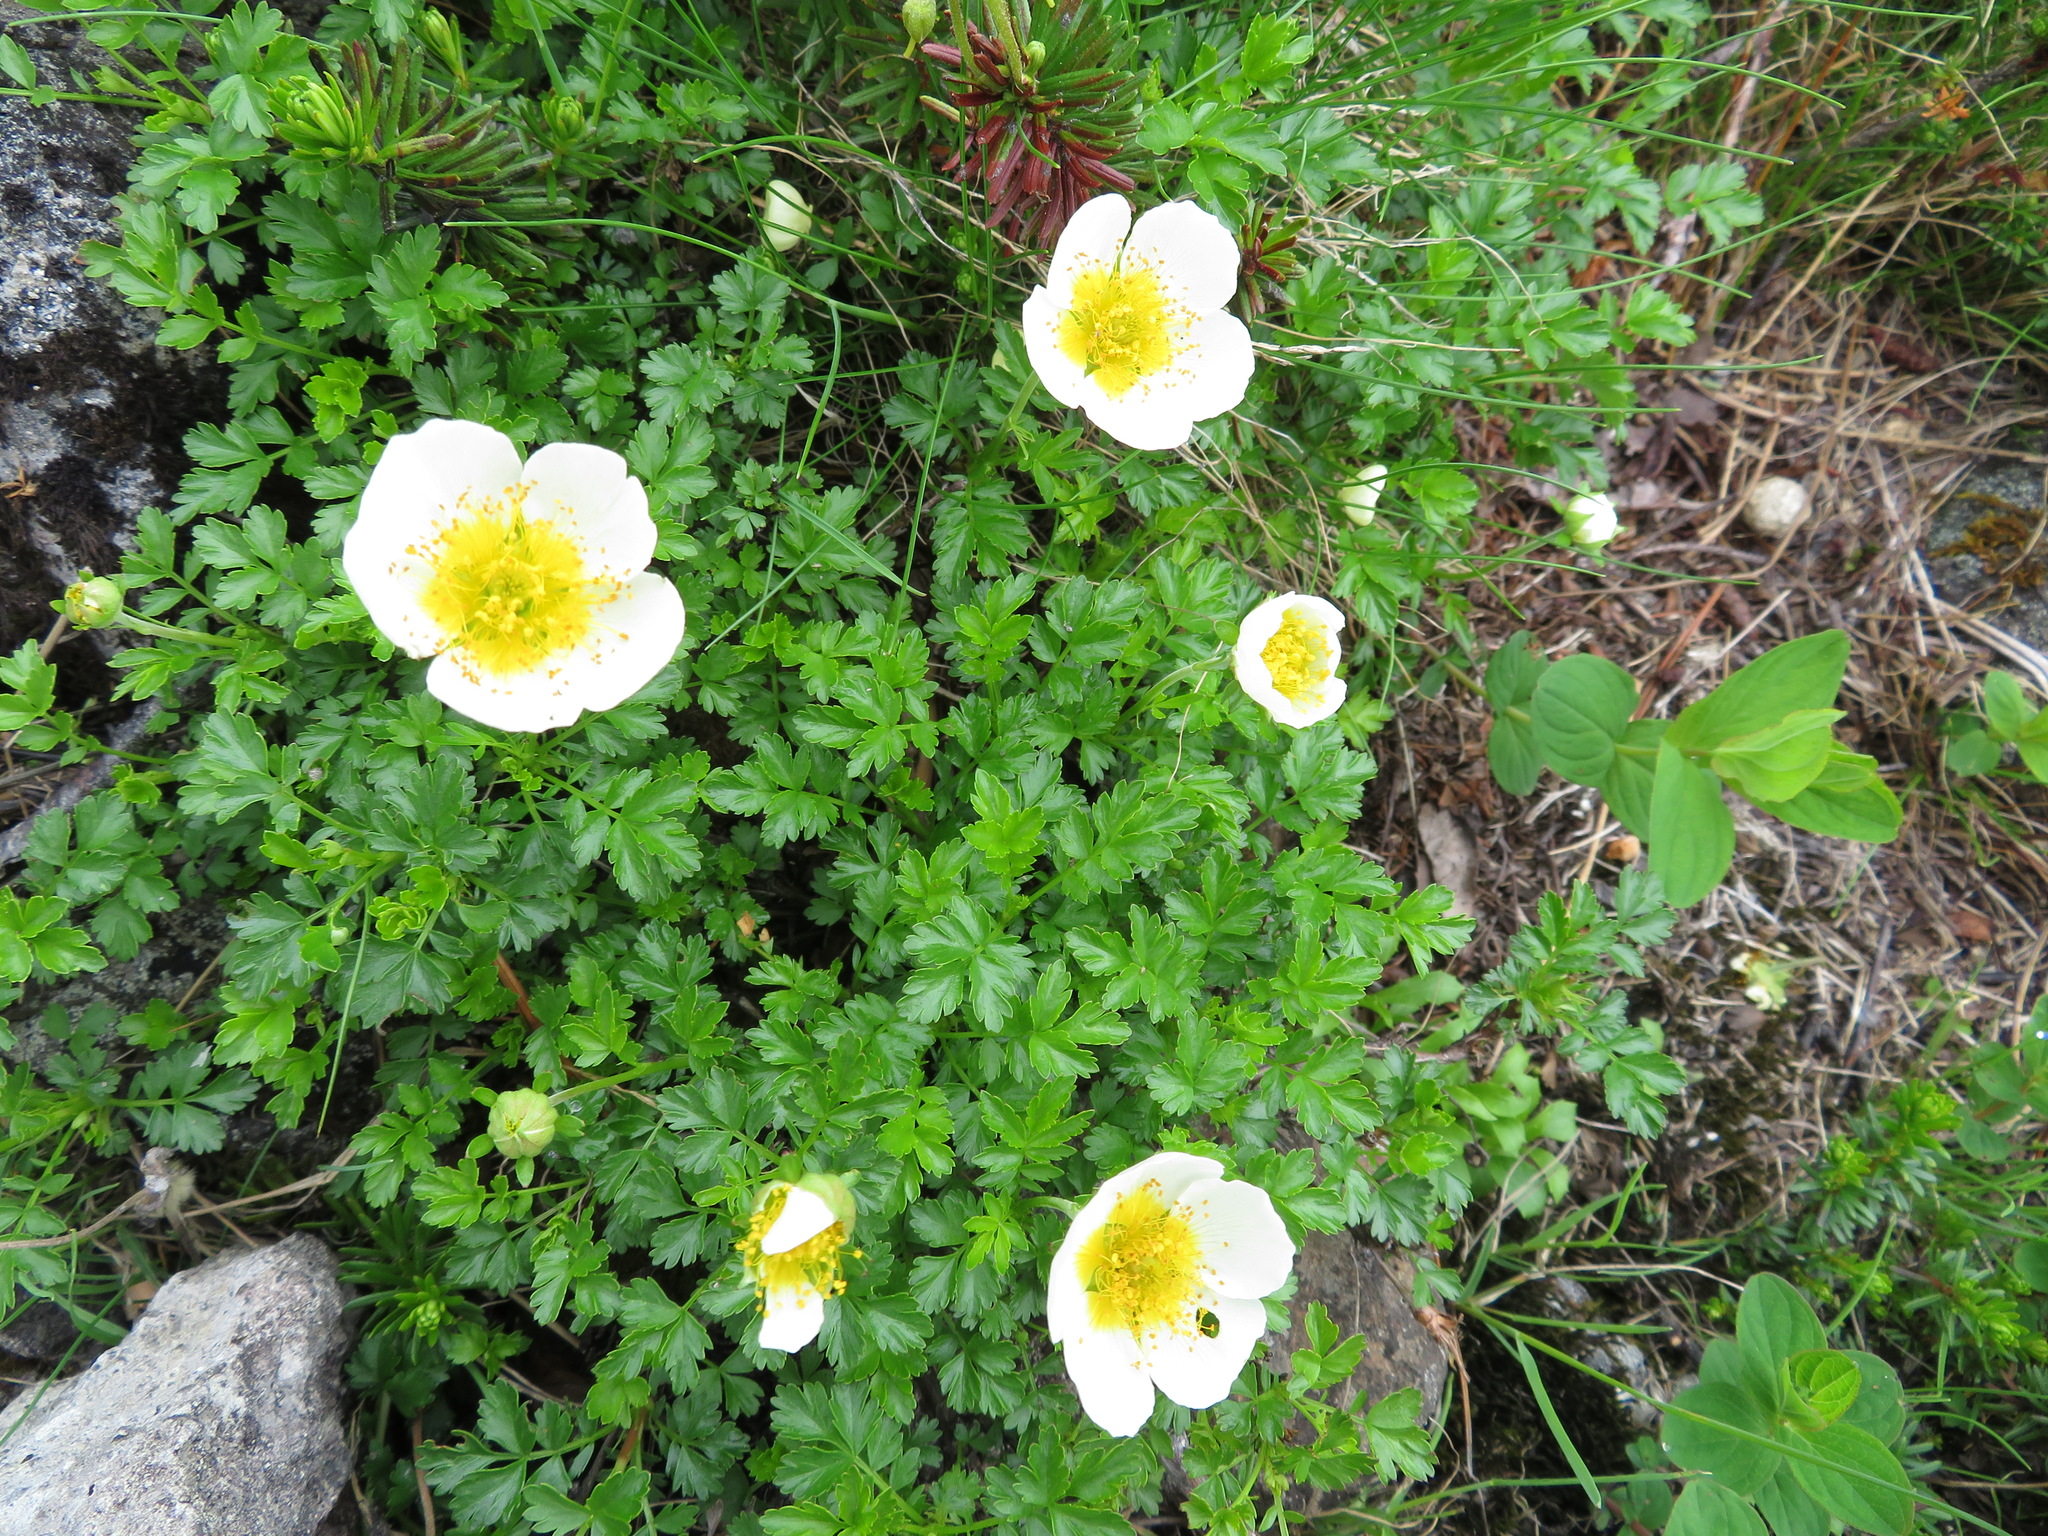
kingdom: Plantae
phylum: Tracheophyta
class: Magnoliopsida
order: Rosales
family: Rosaceae
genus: Geum
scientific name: Geum pentapetalum
